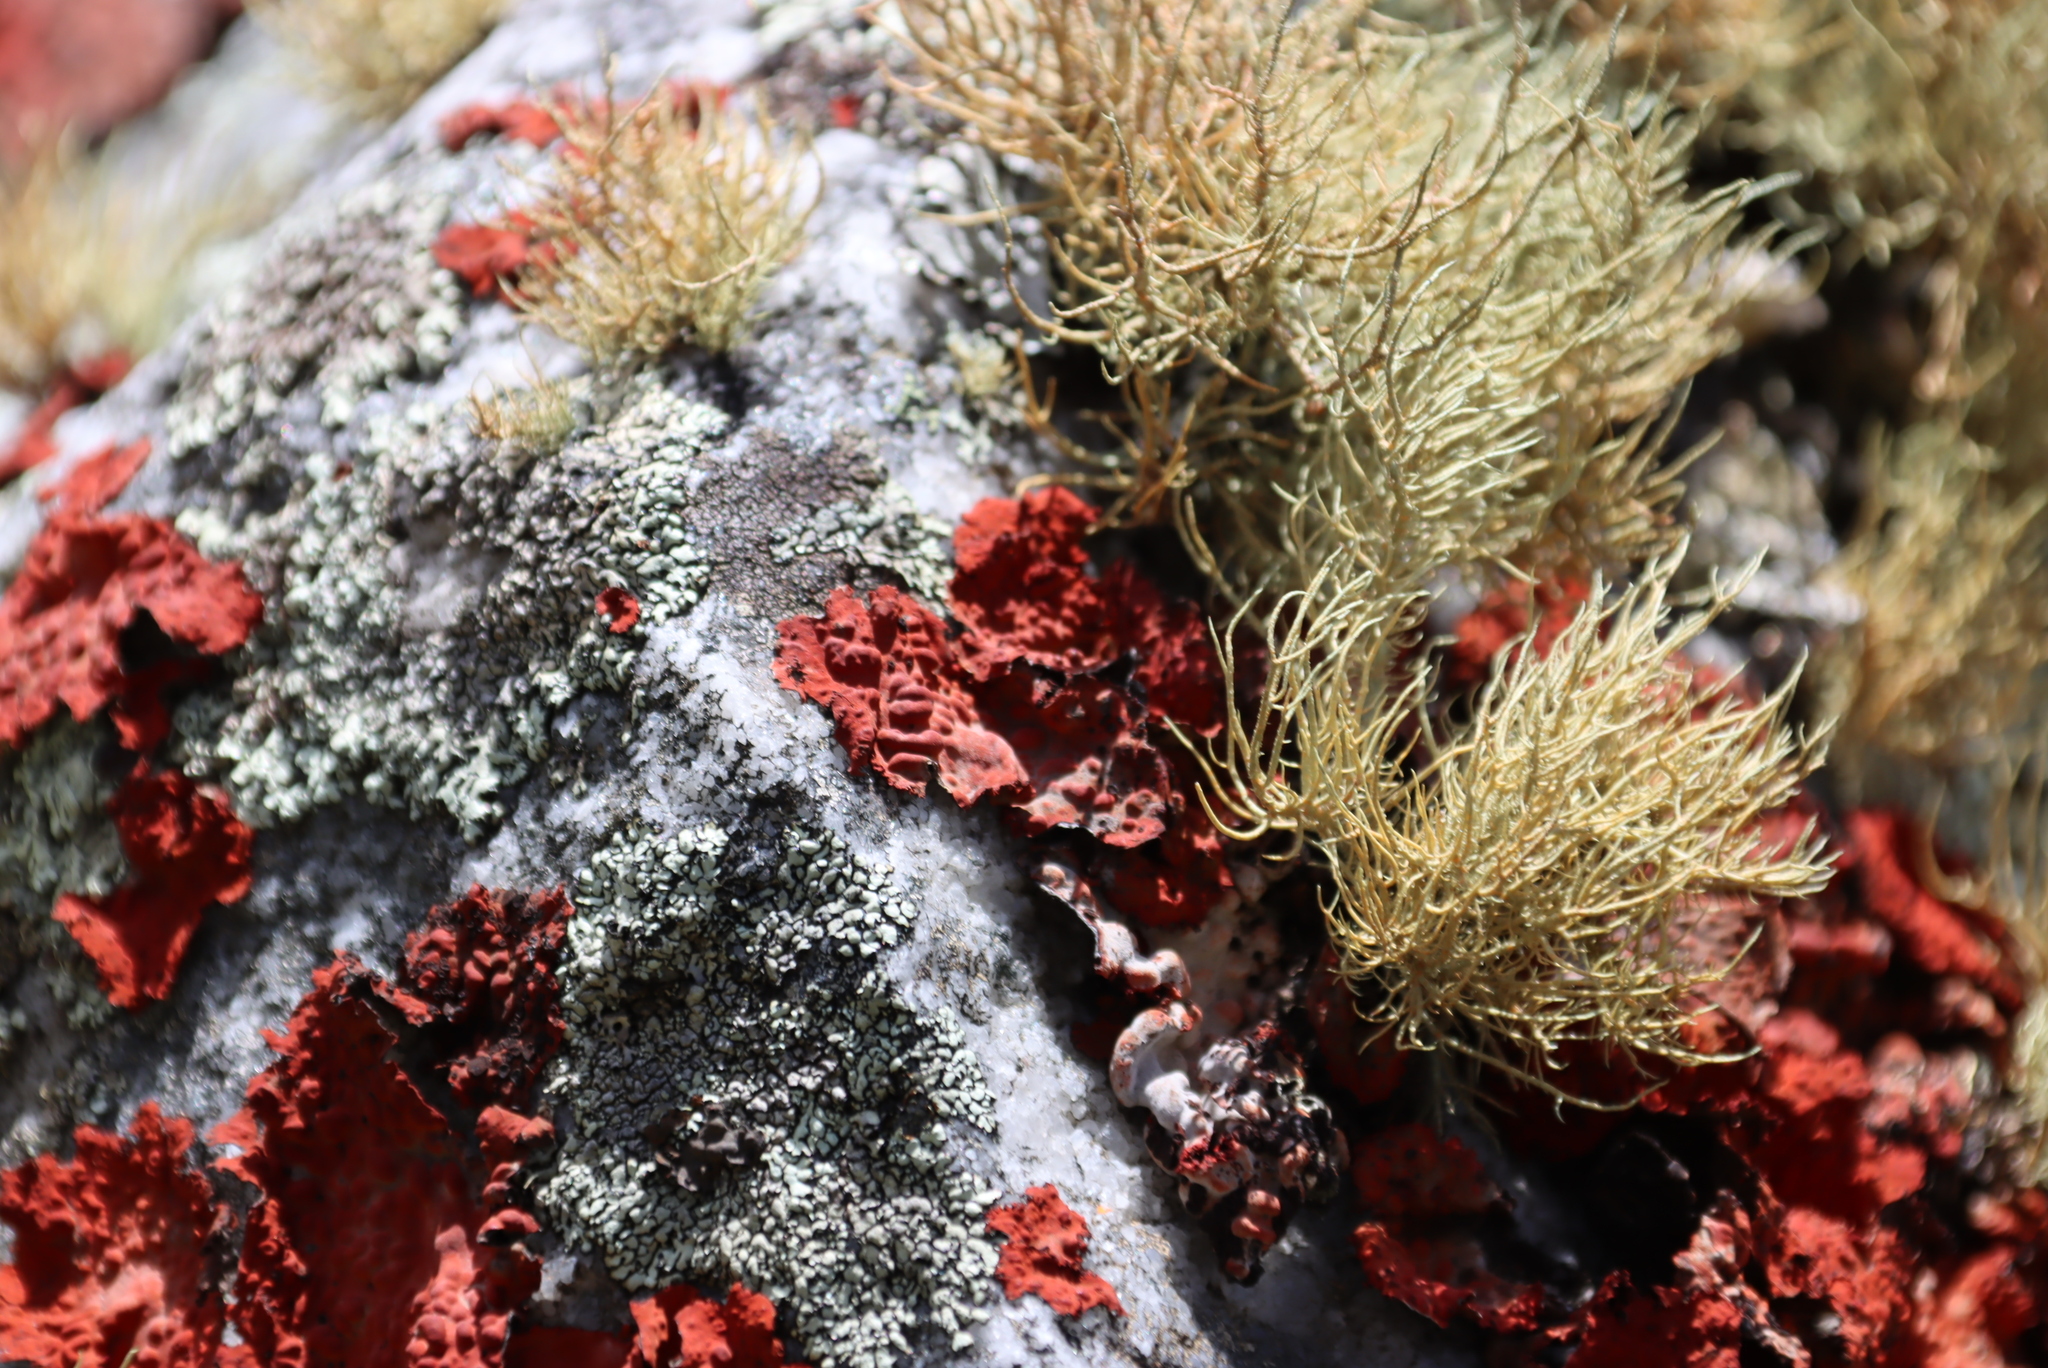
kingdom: Fungi
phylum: Ascomycota
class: Lecanoromycetes
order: Umbilicariales
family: Umbilicariaceae
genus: Lasallia
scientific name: Lasallia rubiginosa
